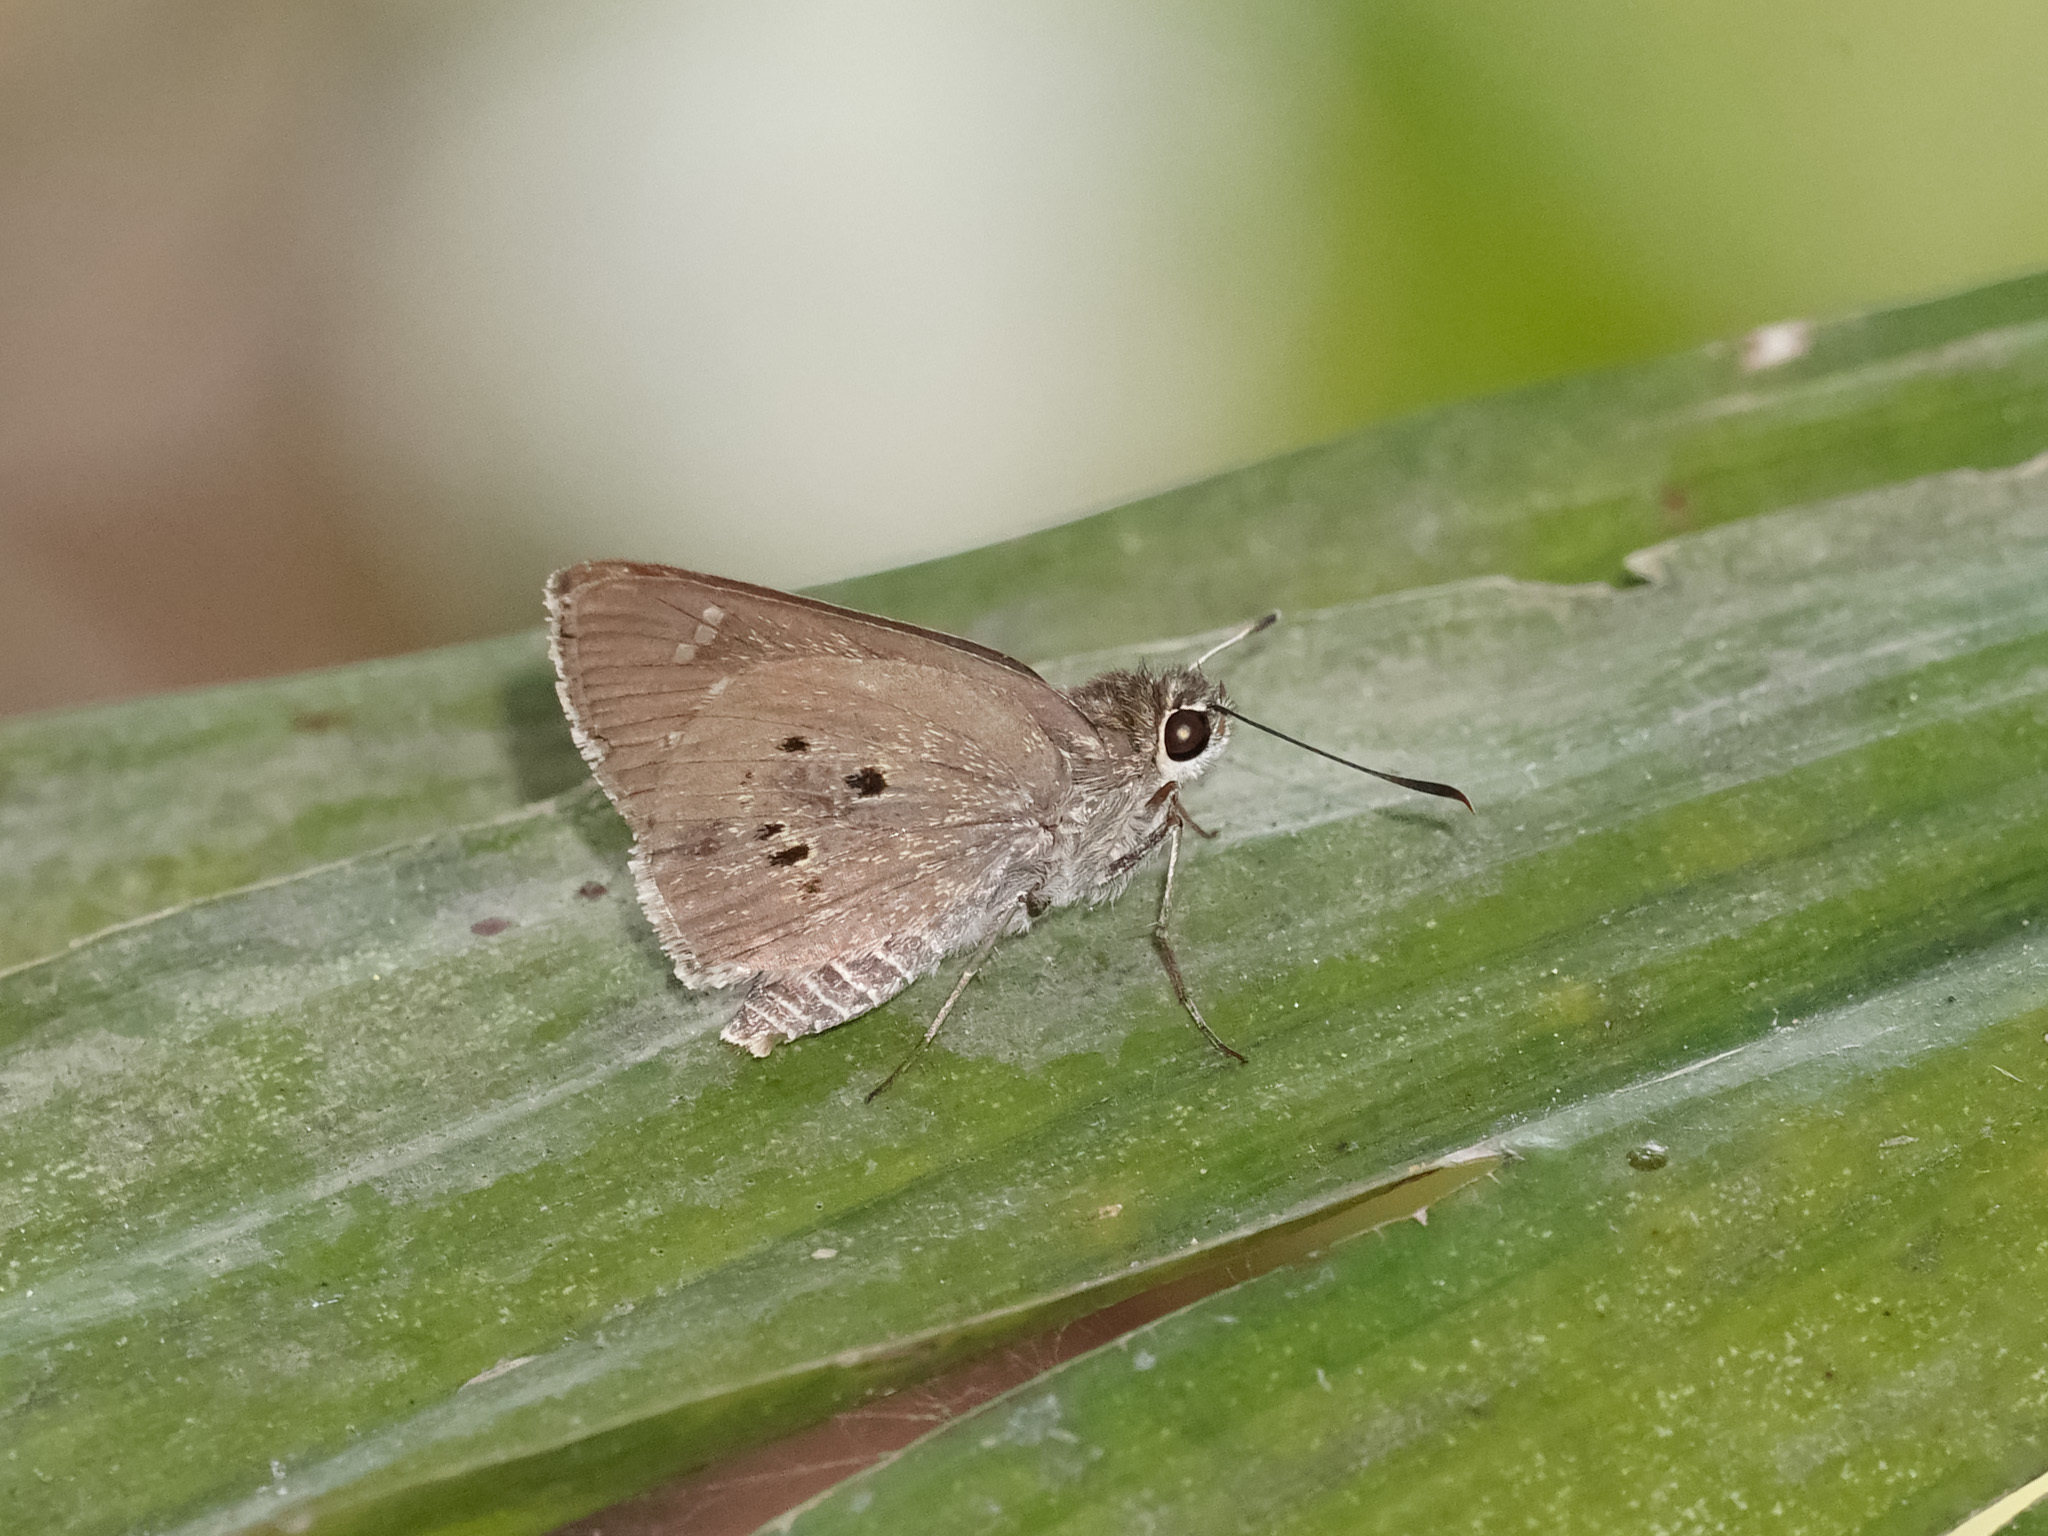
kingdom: Animalia
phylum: Arthropoda
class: Insecta
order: Lepidoptera
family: Hesperiidae
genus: Suastus
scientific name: Suastus gremius
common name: Indian palm bob
